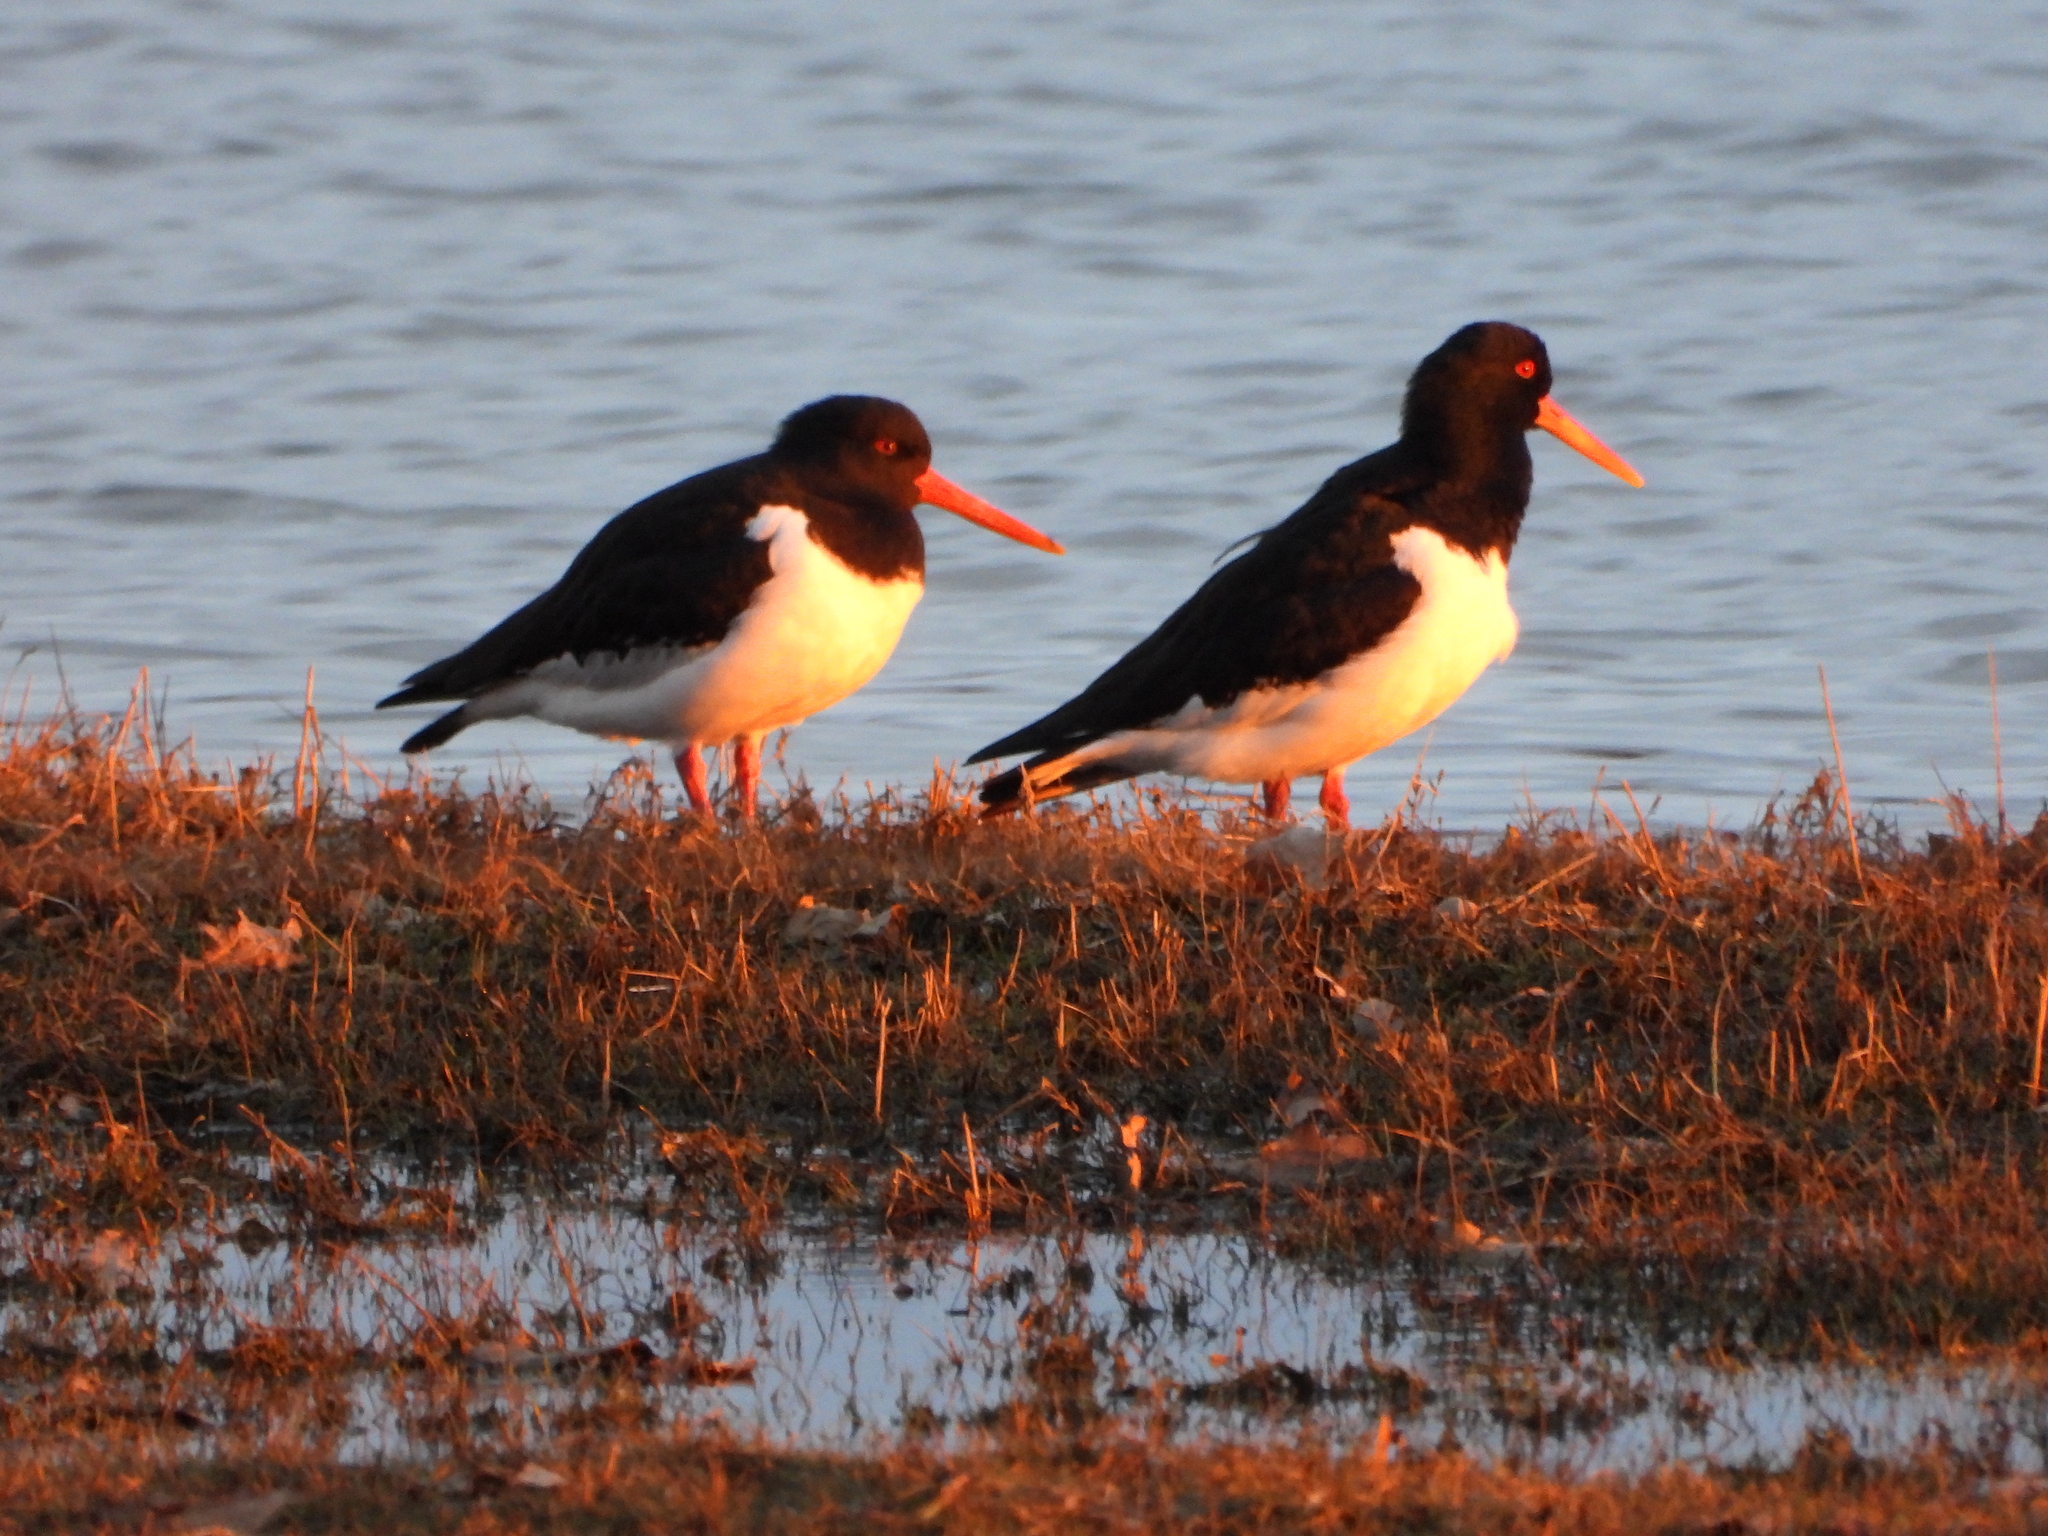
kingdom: Animalia
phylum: Chordata
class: Aves
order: Charadriiformes
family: Haematopodidae
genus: Haematopus
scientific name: Haematopus ostralegus
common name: Eurasian oystercatcher
